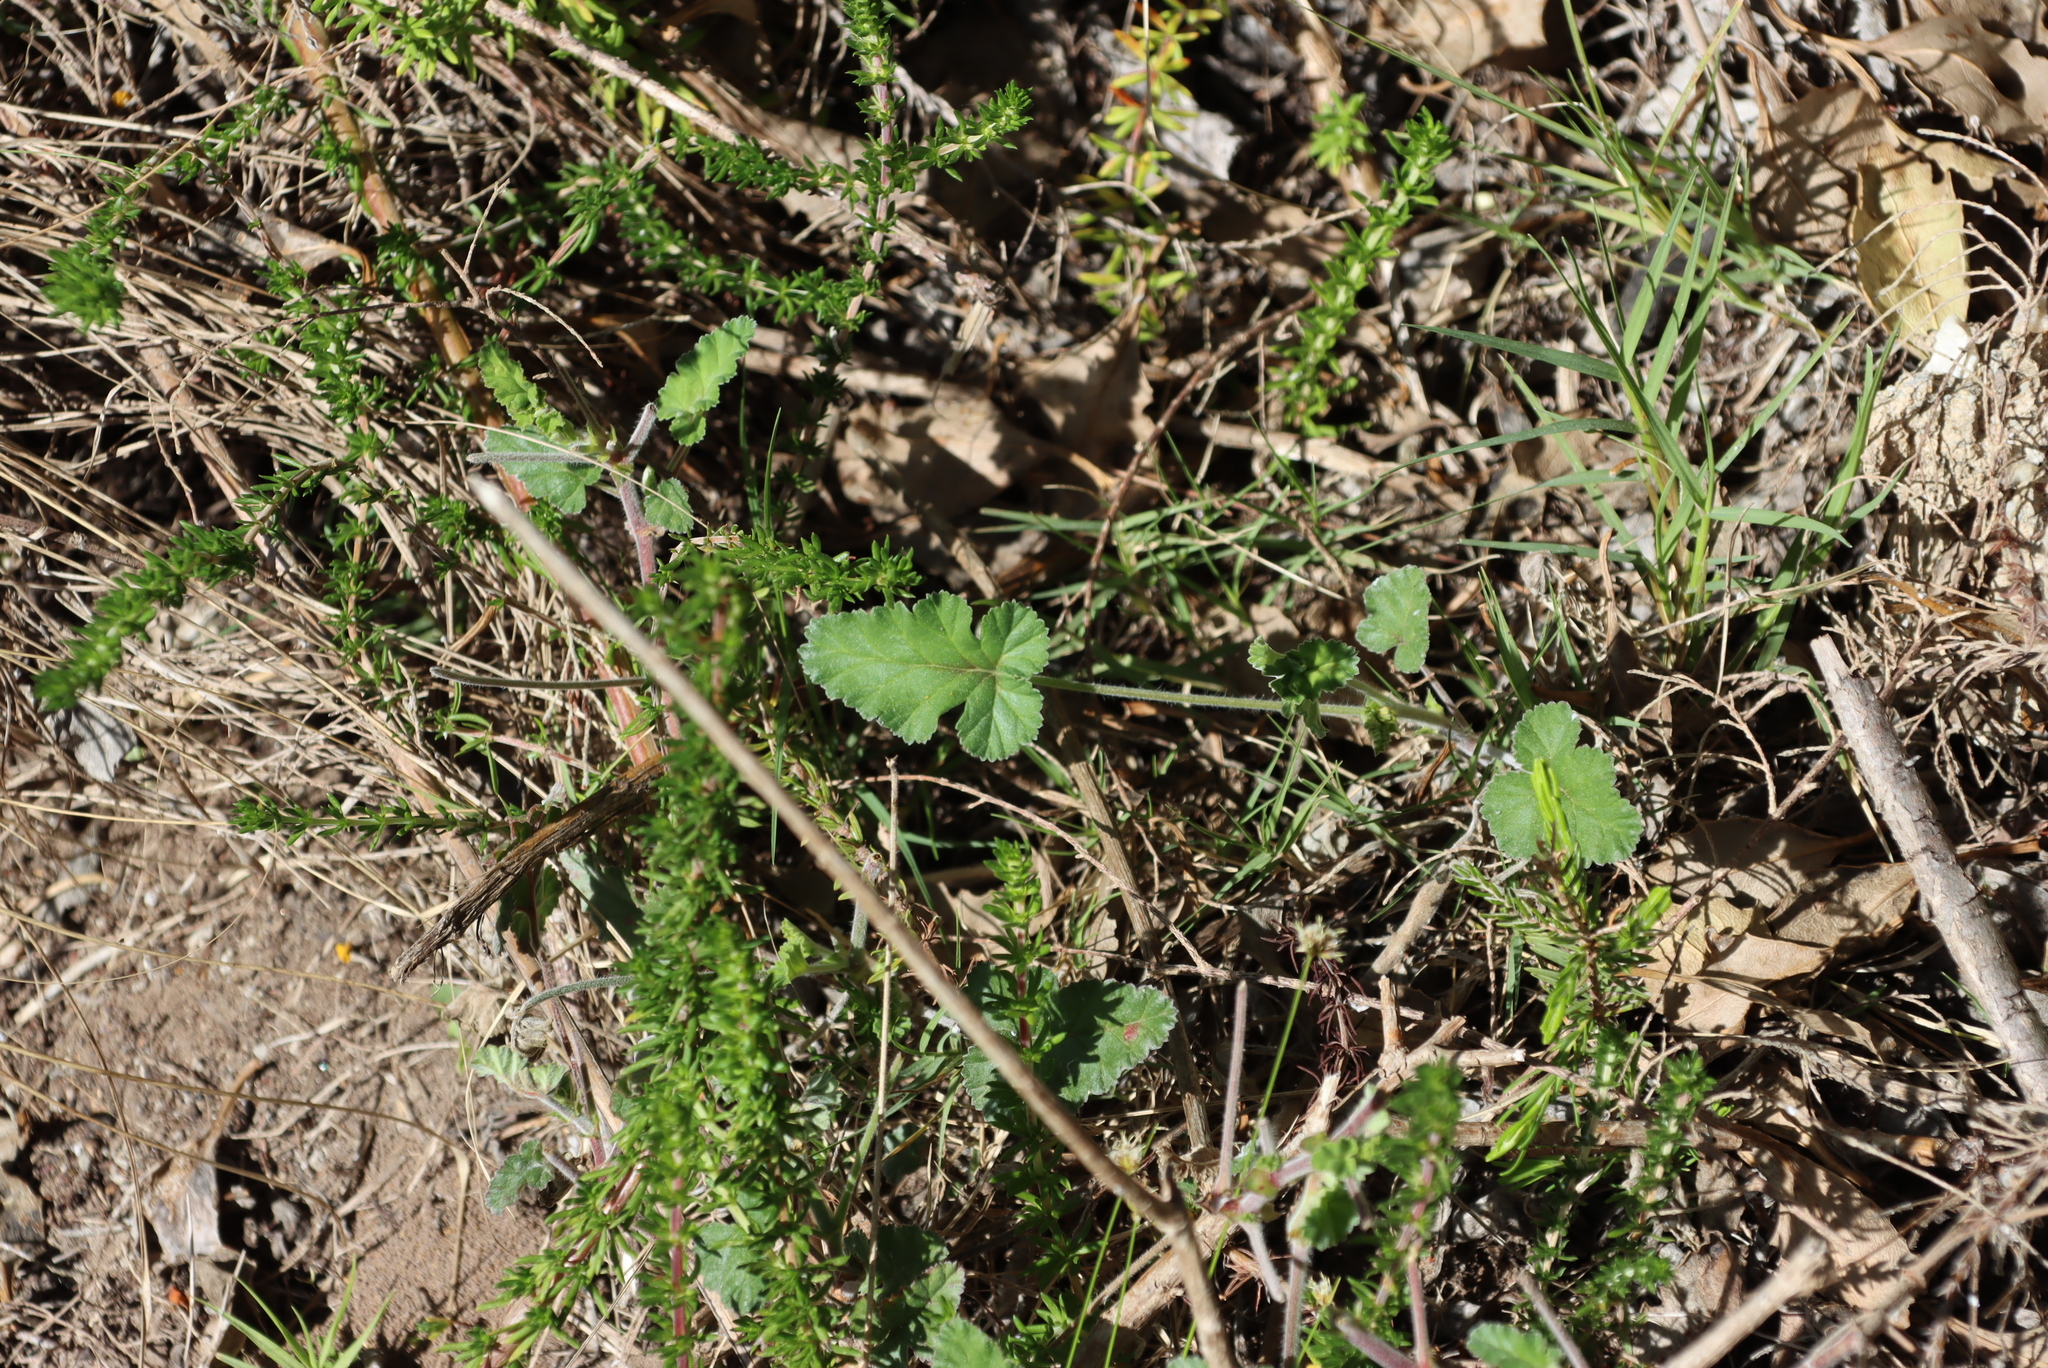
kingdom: Plantae
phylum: Tracheophyta
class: Magnoliopsida
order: Geraniales
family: Geraniaceae
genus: Pelargonium
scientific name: Pelargonium candicans
